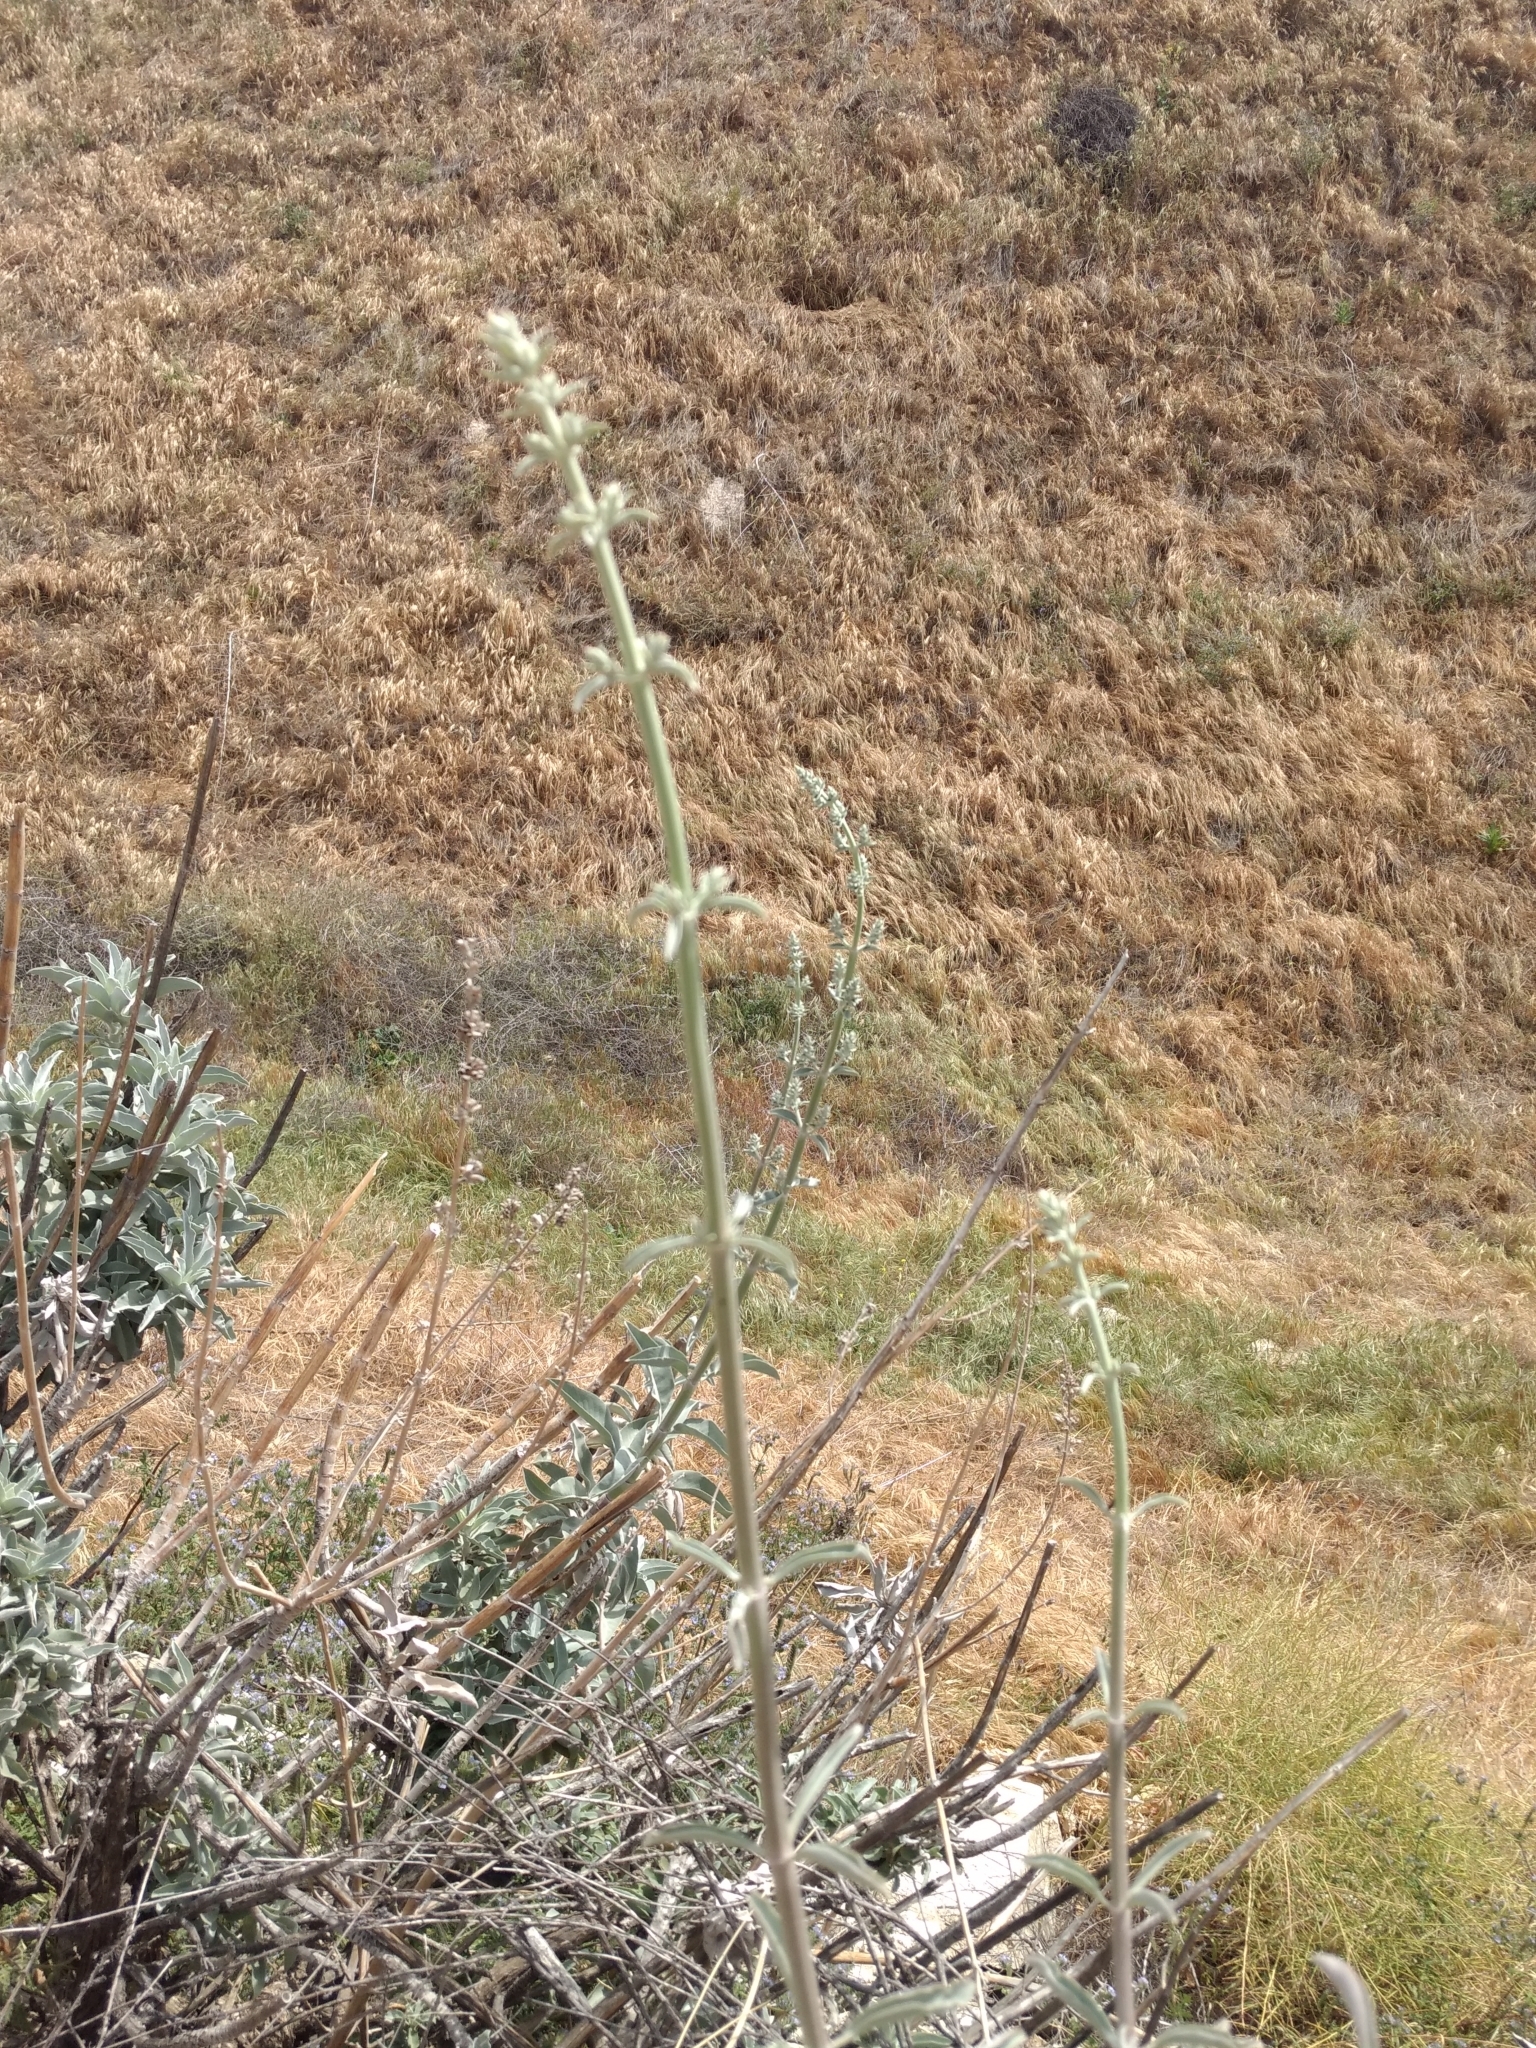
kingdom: Plantae
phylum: Tracheophyta
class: Magnoliopsida
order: Lamiales
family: Lamiaceae
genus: Salvia
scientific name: Salvia apiana
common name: White sage
